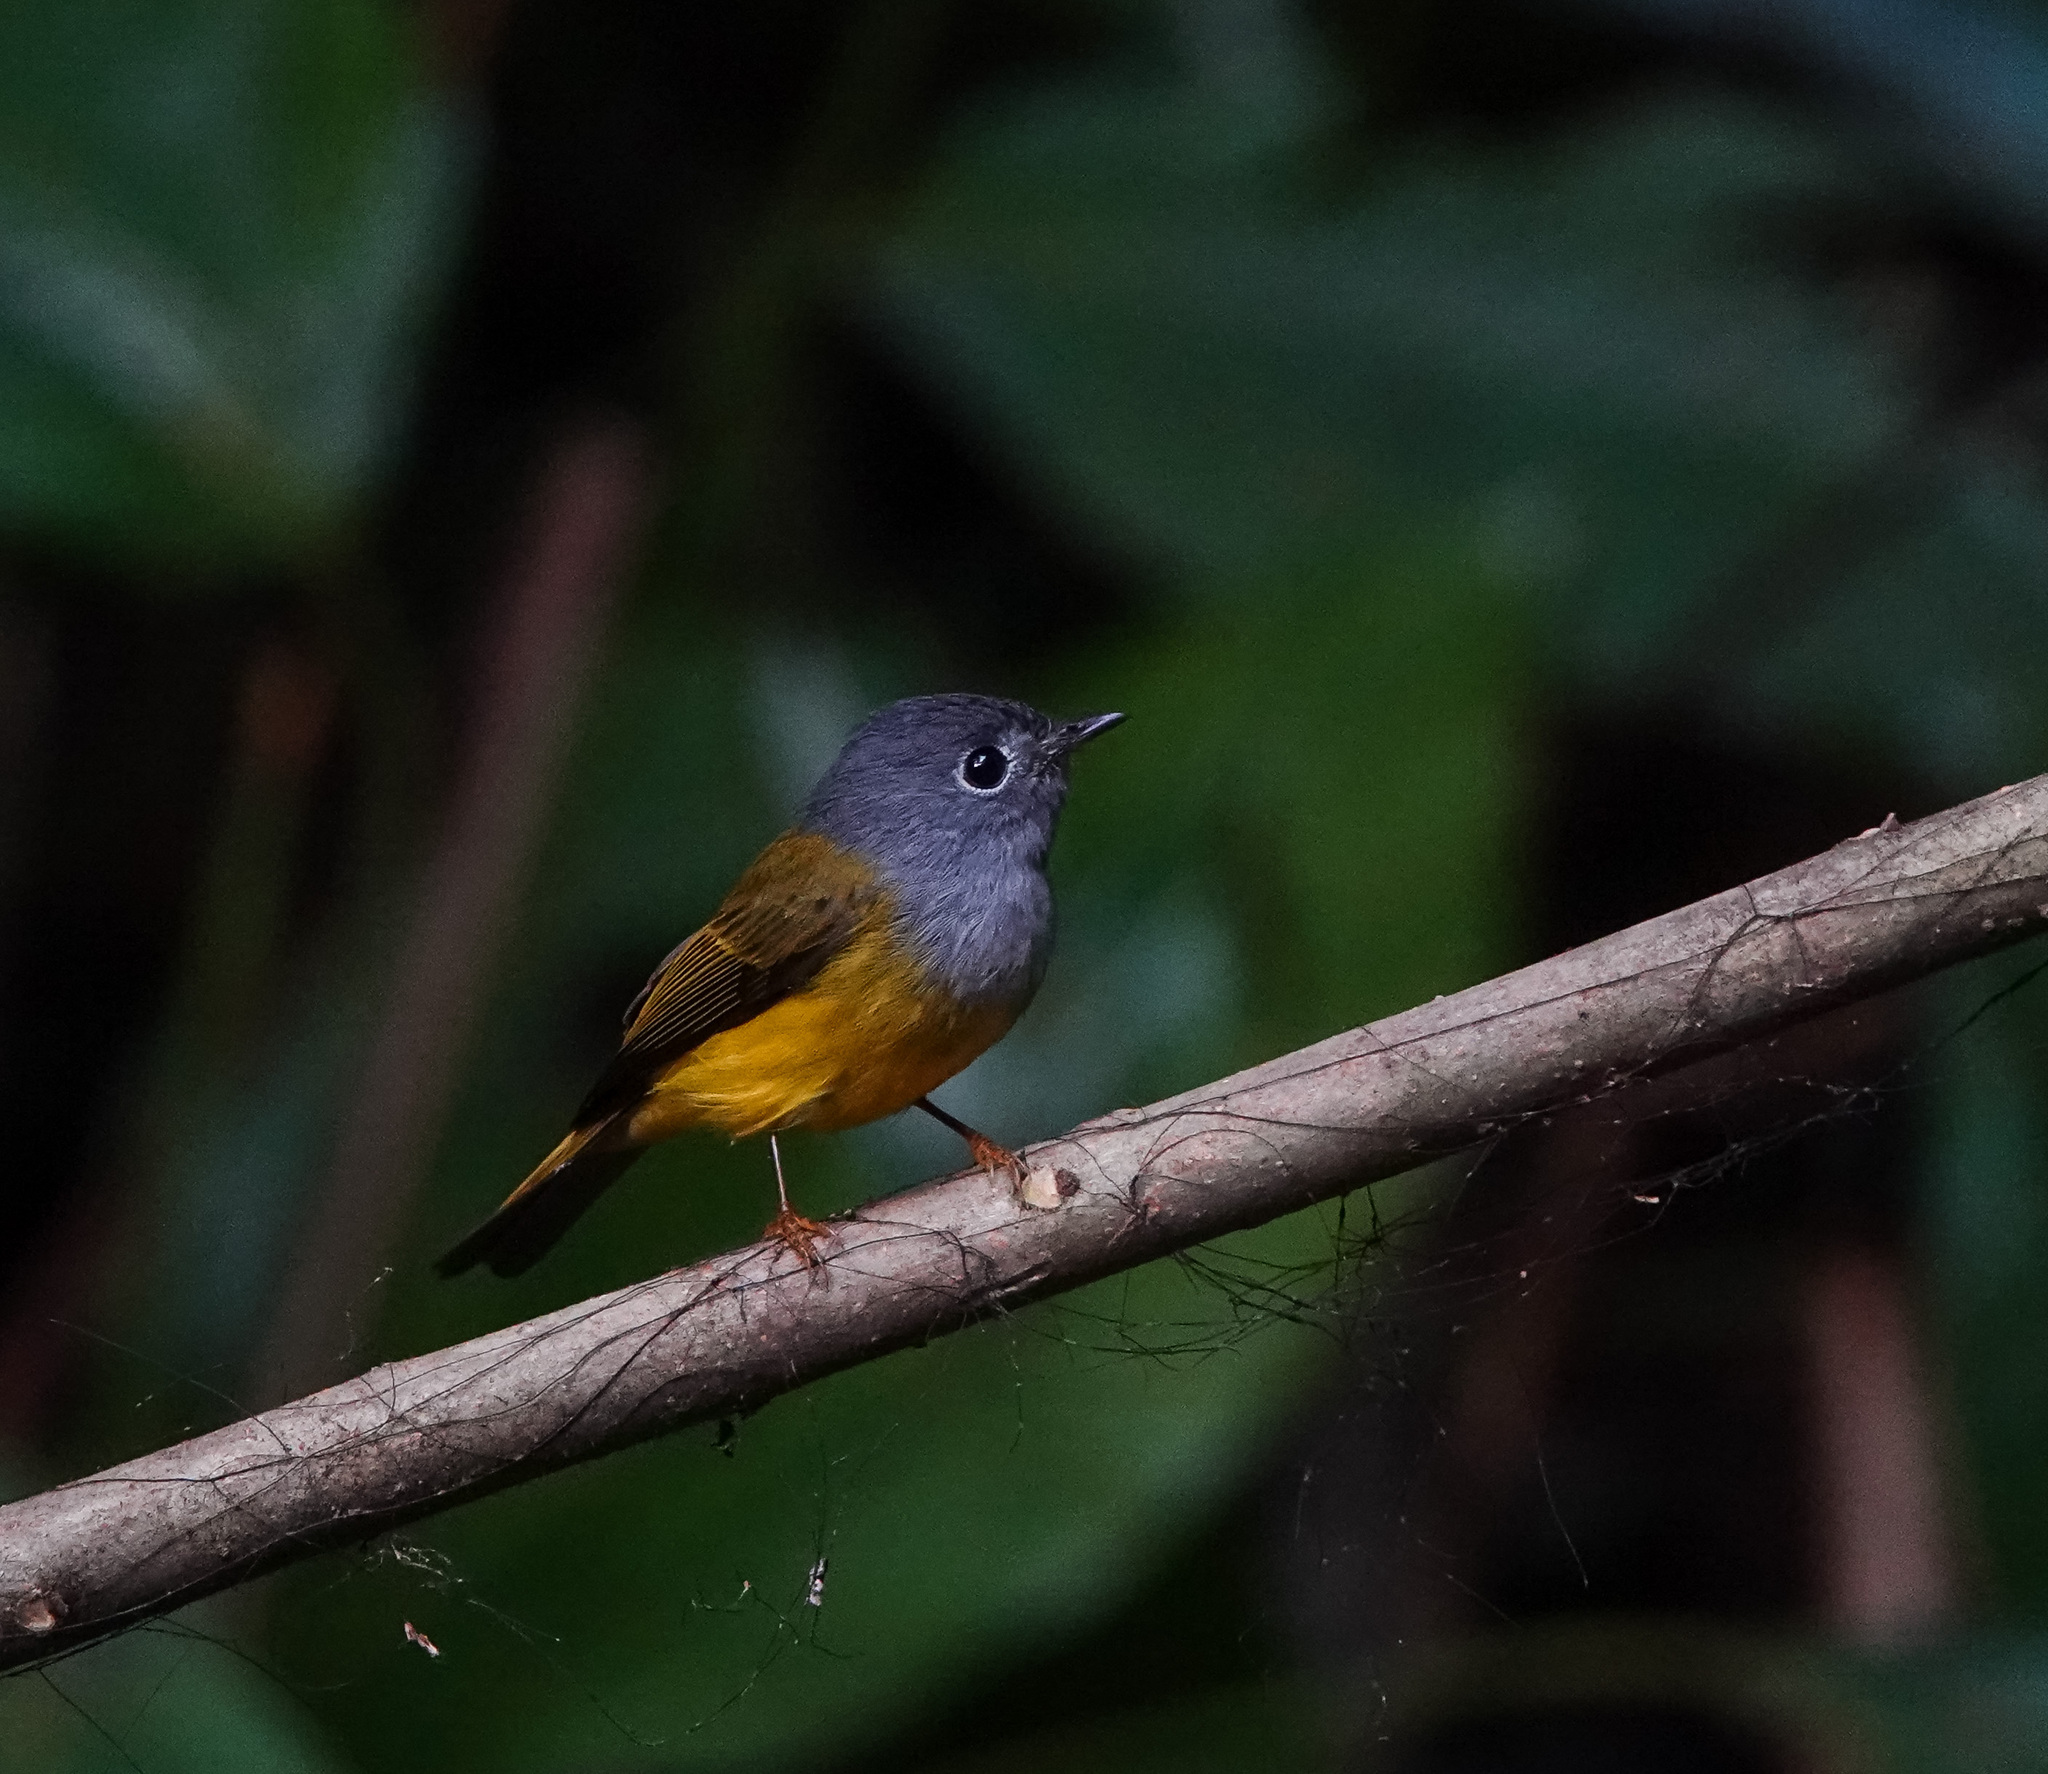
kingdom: Animalia
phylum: Chordata
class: Aves
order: Passeriformes
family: Stenostiridae
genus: Culicicapa
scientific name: Culicicapa ceylonensis
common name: Grey-headed canary-flycatcher
